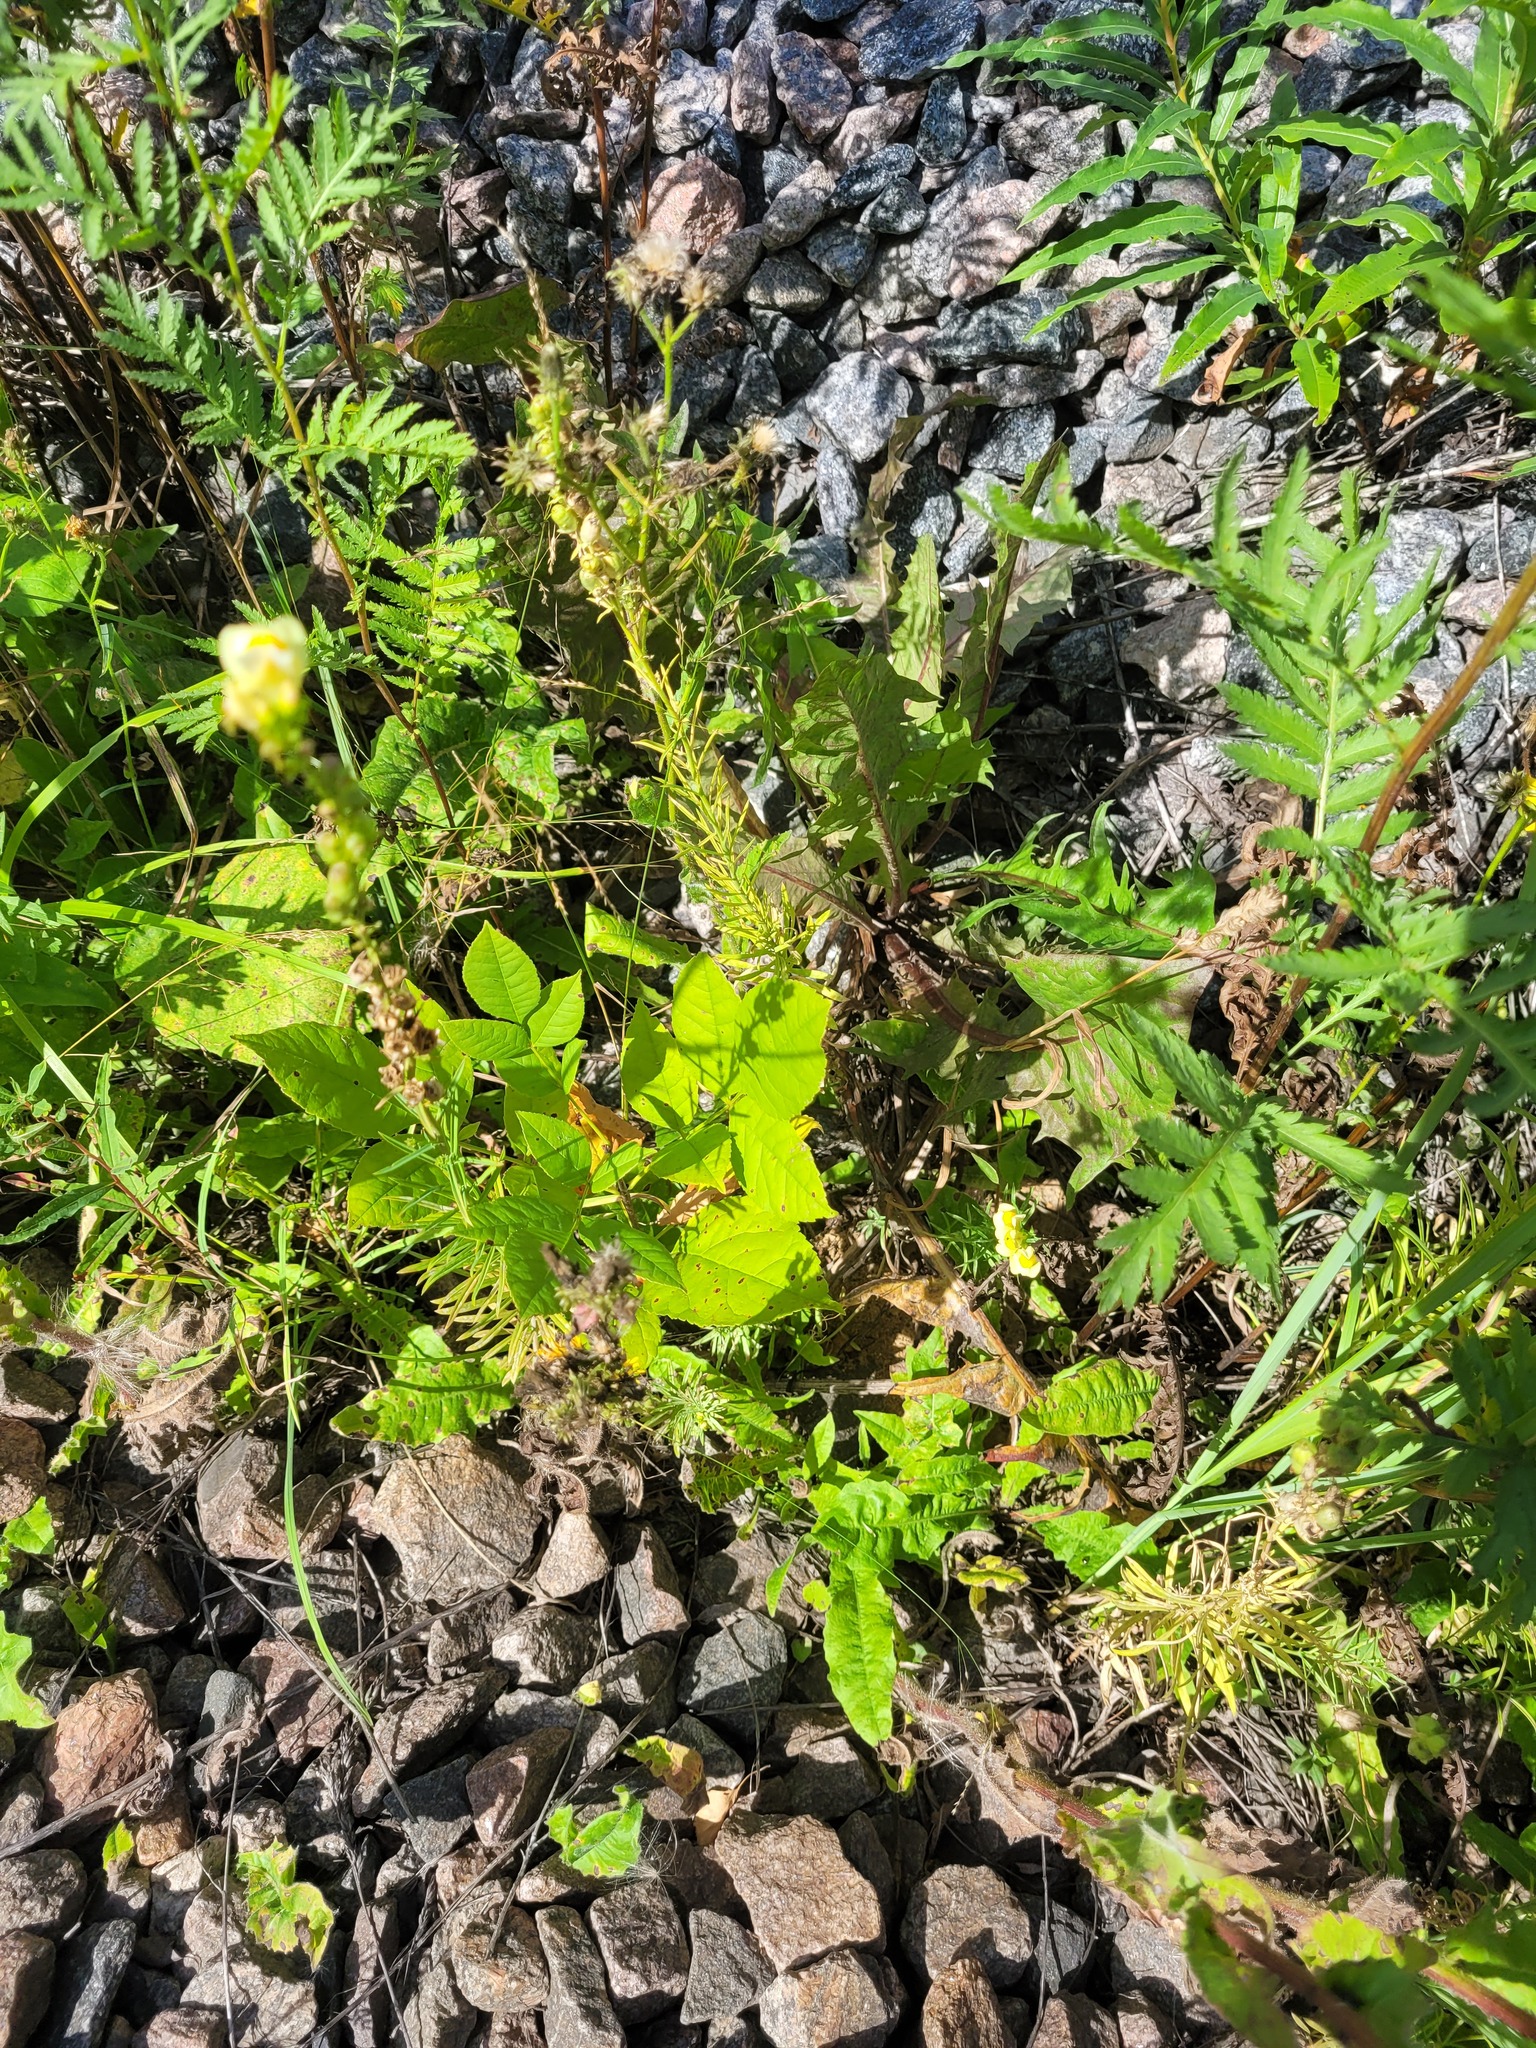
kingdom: Plantae
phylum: Tracheophyta
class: Magnoliopsida
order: Lamiales
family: Oleaceae
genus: Fraxinus
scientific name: Fraxinus pennsylvanica
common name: Green ash
